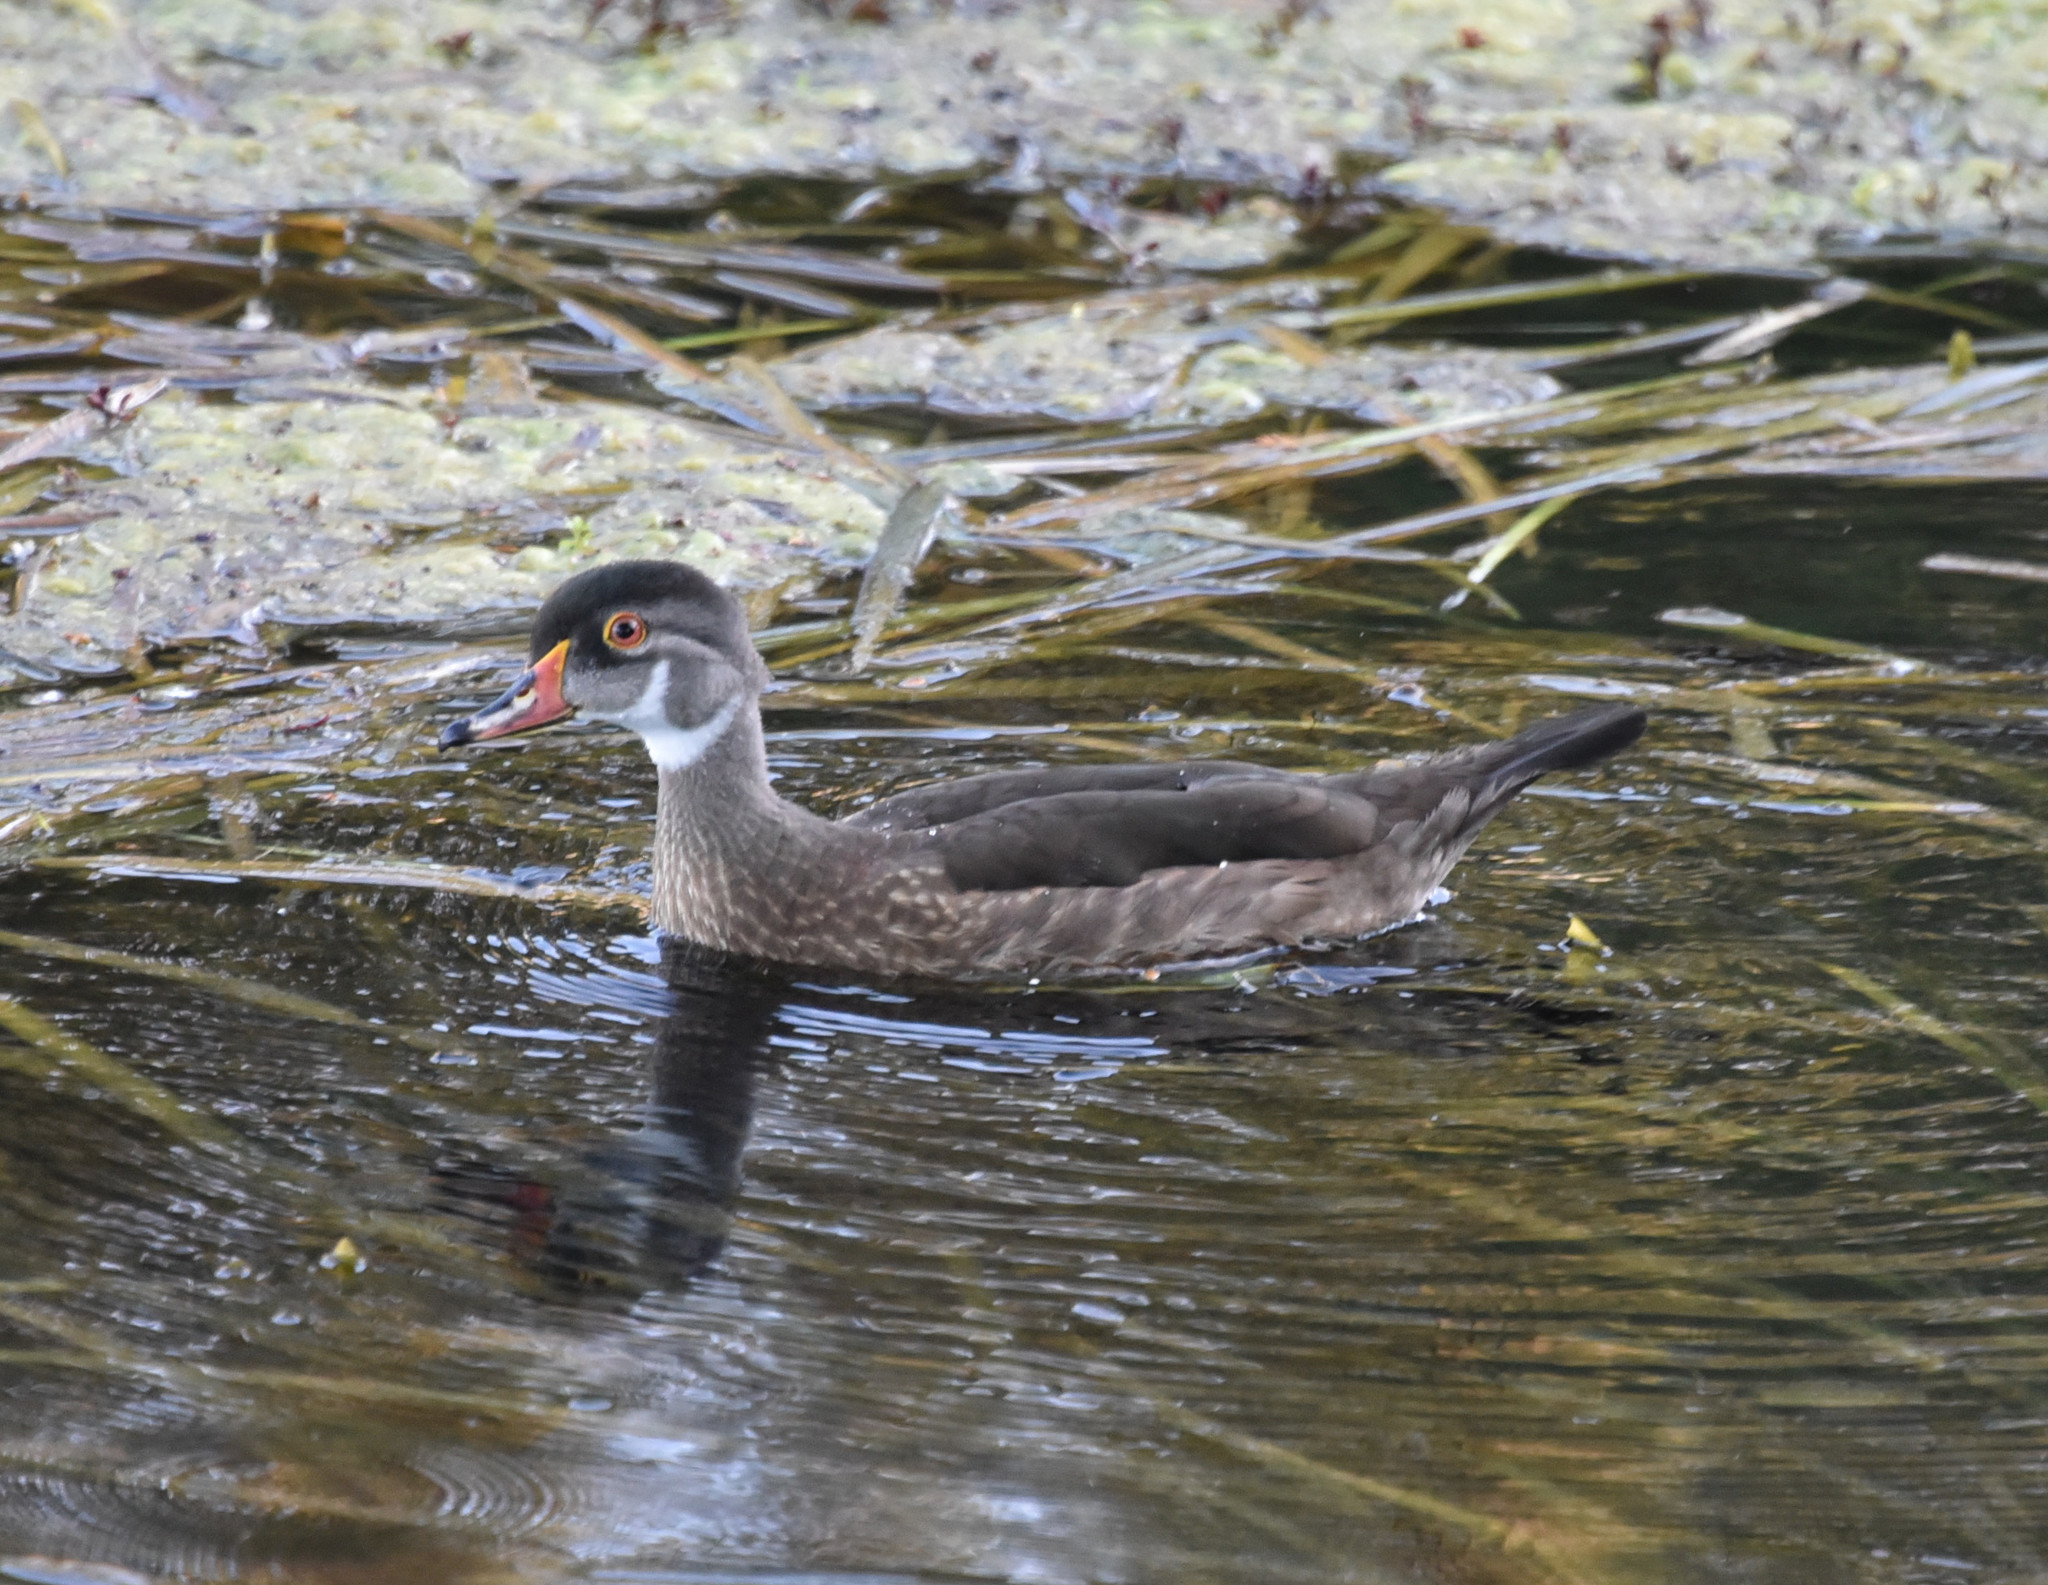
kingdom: Animalia
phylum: Chordata
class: Aves
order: Anseriformes
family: Anatidae
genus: Aix
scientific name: Aix sponsa
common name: Wood duck
